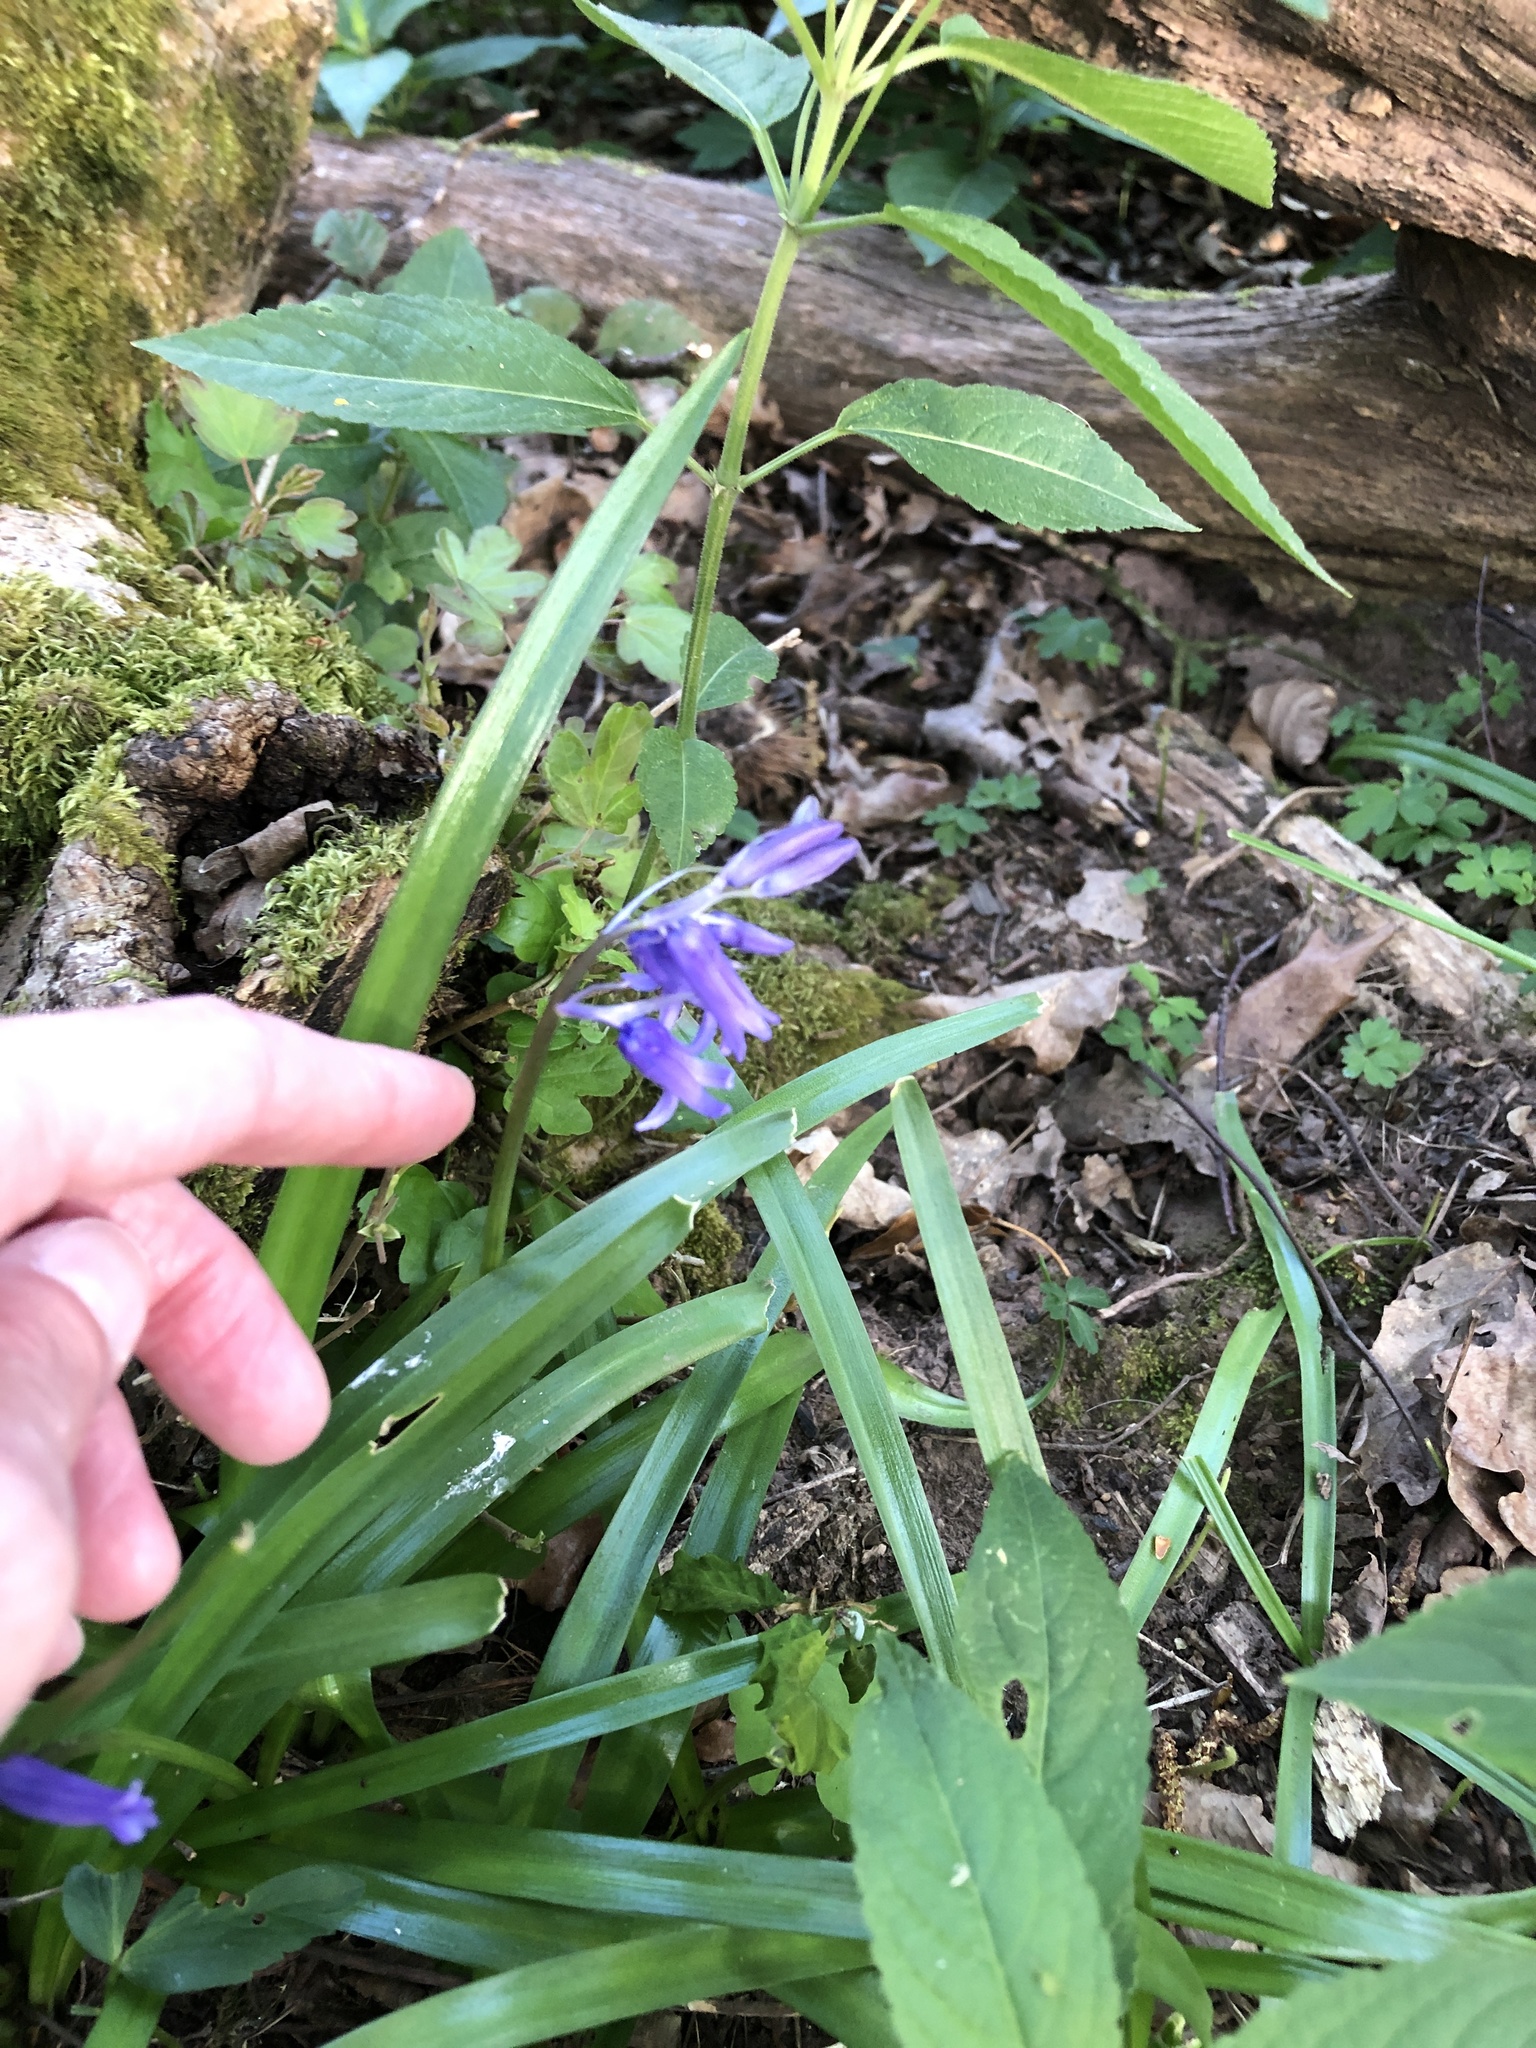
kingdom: Plantae
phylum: Tracheophyta
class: Liliopsida
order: Asparagales
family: Asparagaceae
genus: Hyacinthoides
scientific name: Hyacinthoides non-scripta
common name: Bluebell
